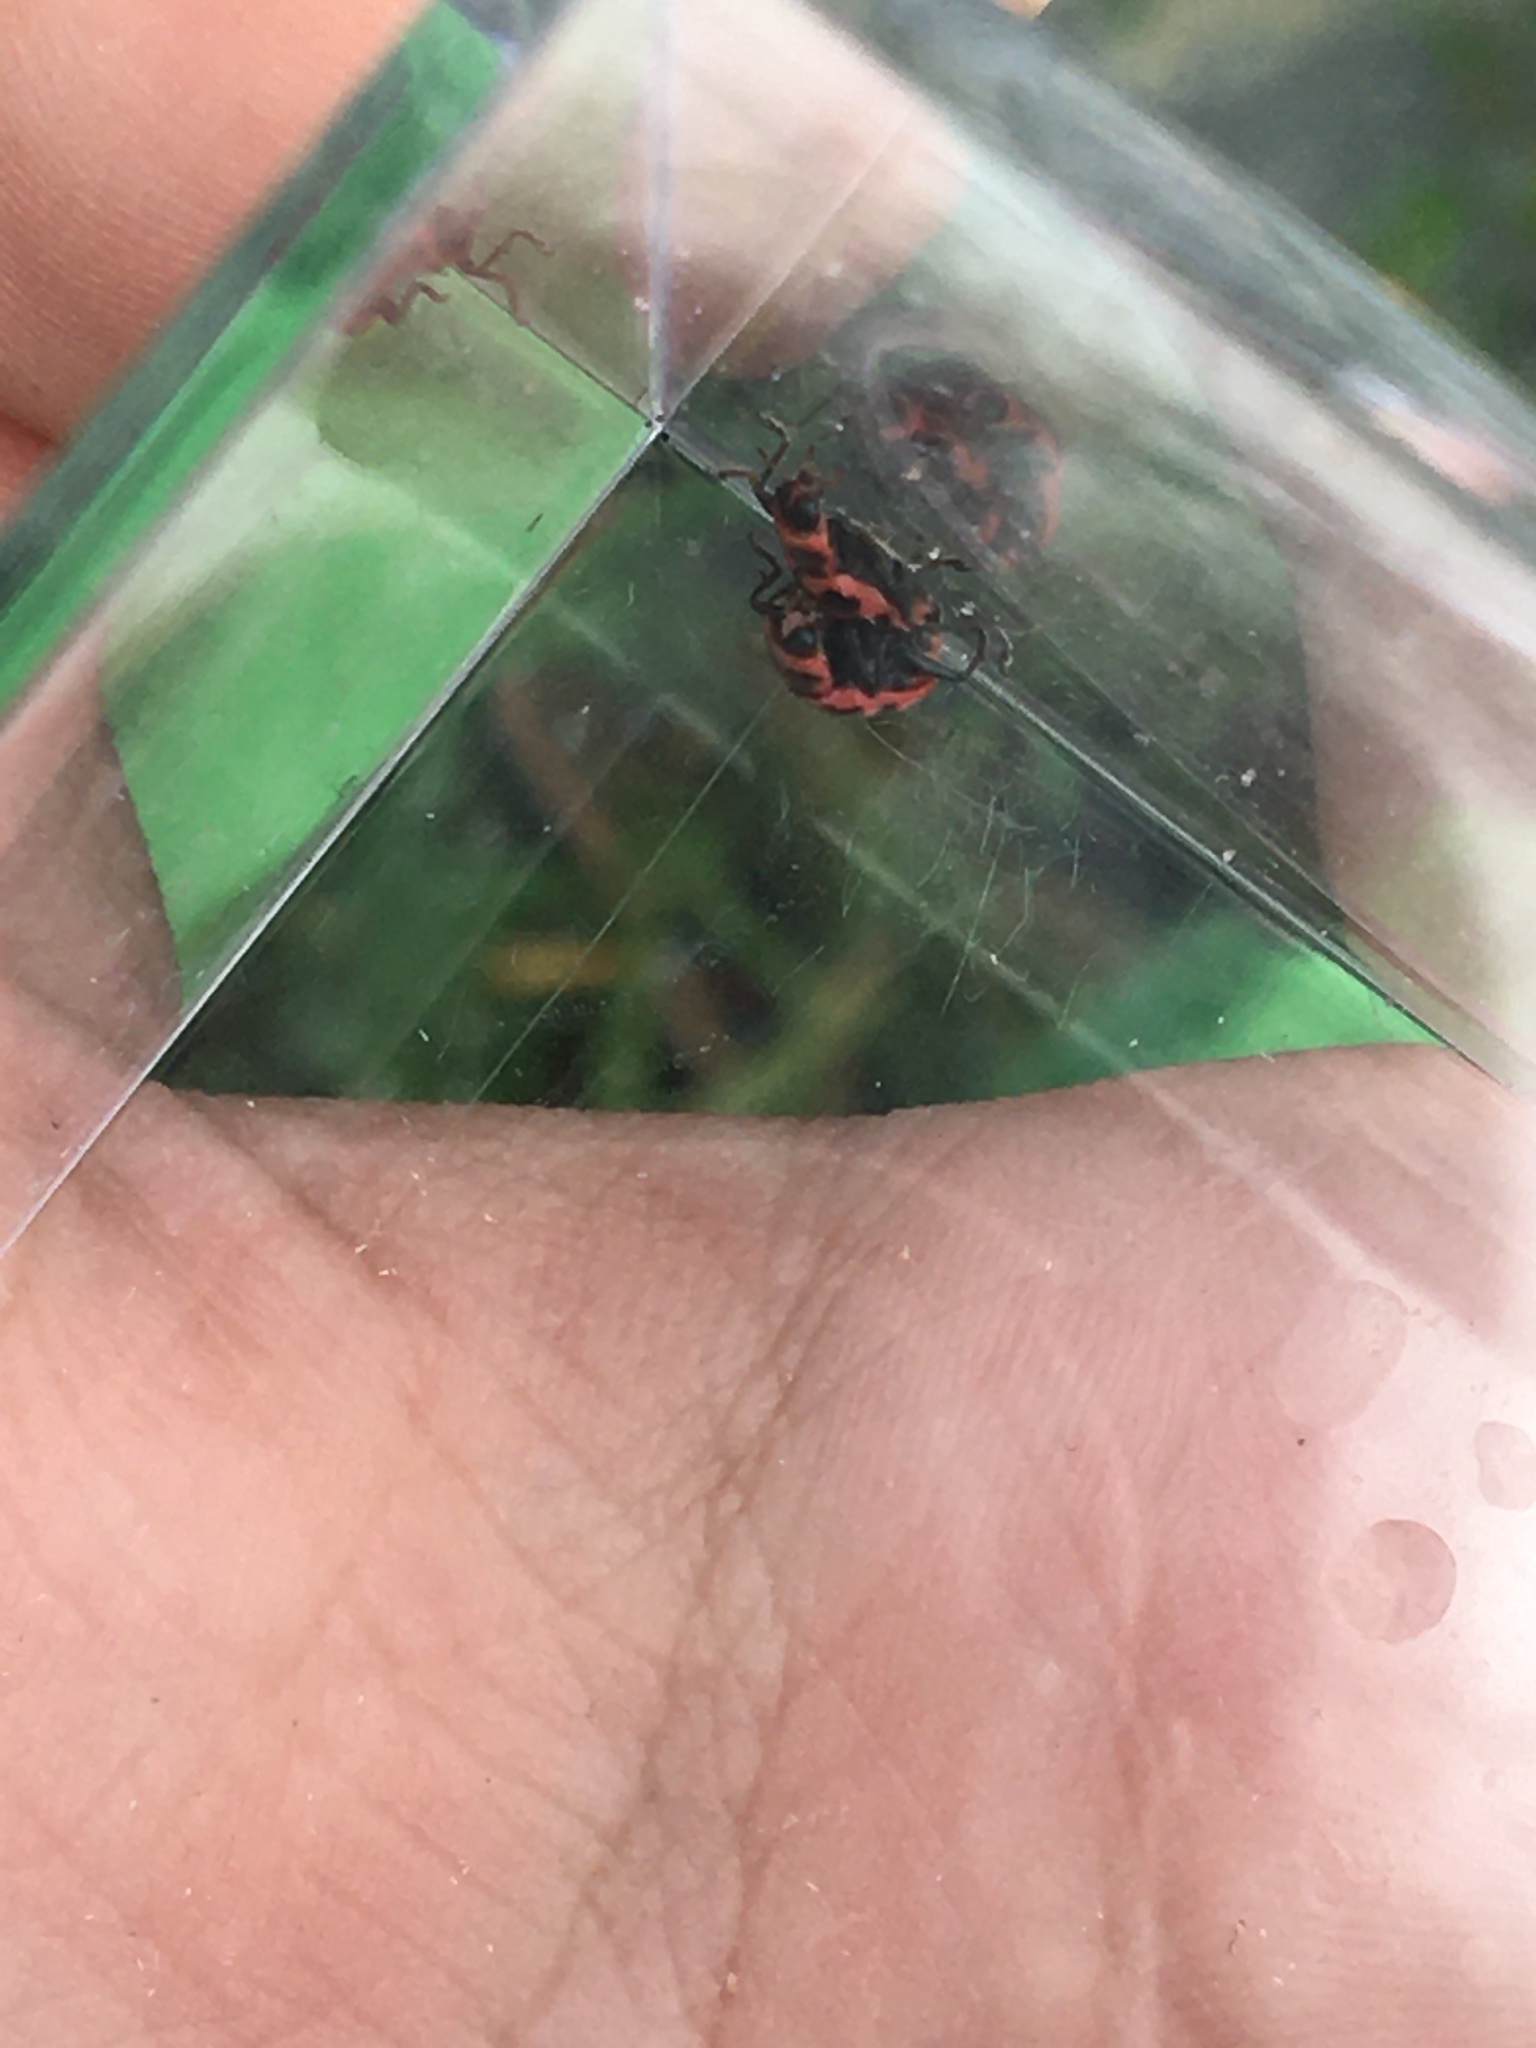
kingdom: Animalia
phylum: Arthropoda
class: Insecta
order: Coleoptera
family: Coccinellidae
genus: Coleomegilla
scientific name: Coleomegilla maculata
